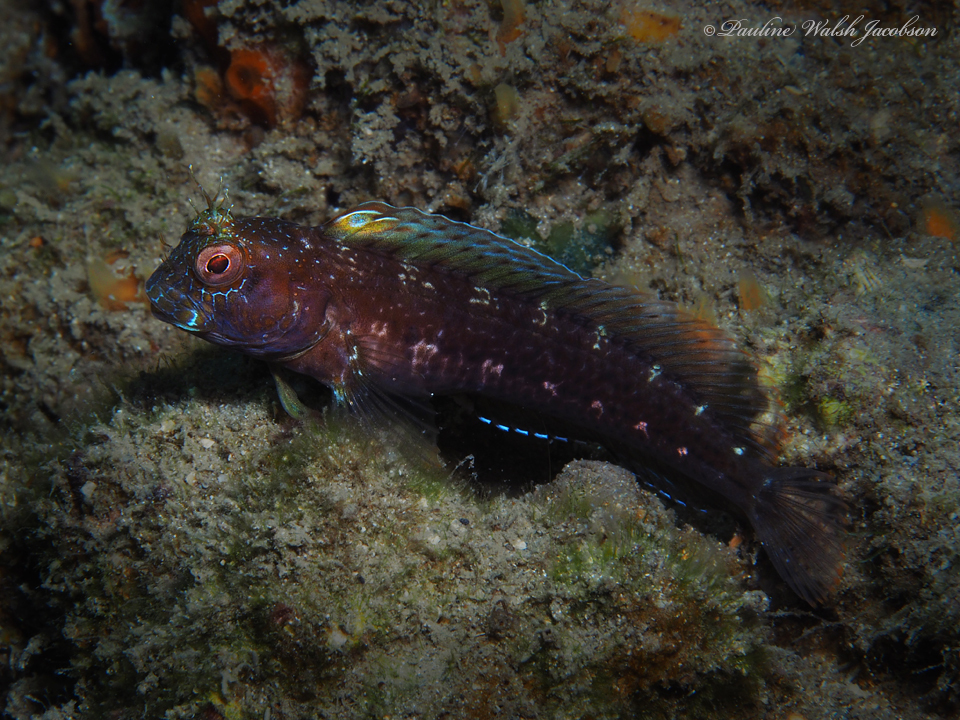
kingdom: Animalia
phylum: Chordata
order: Perciformes
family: Blenniidae
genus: Parablennius
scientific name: Parablennius marmoreus
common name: Seaweed blenny
